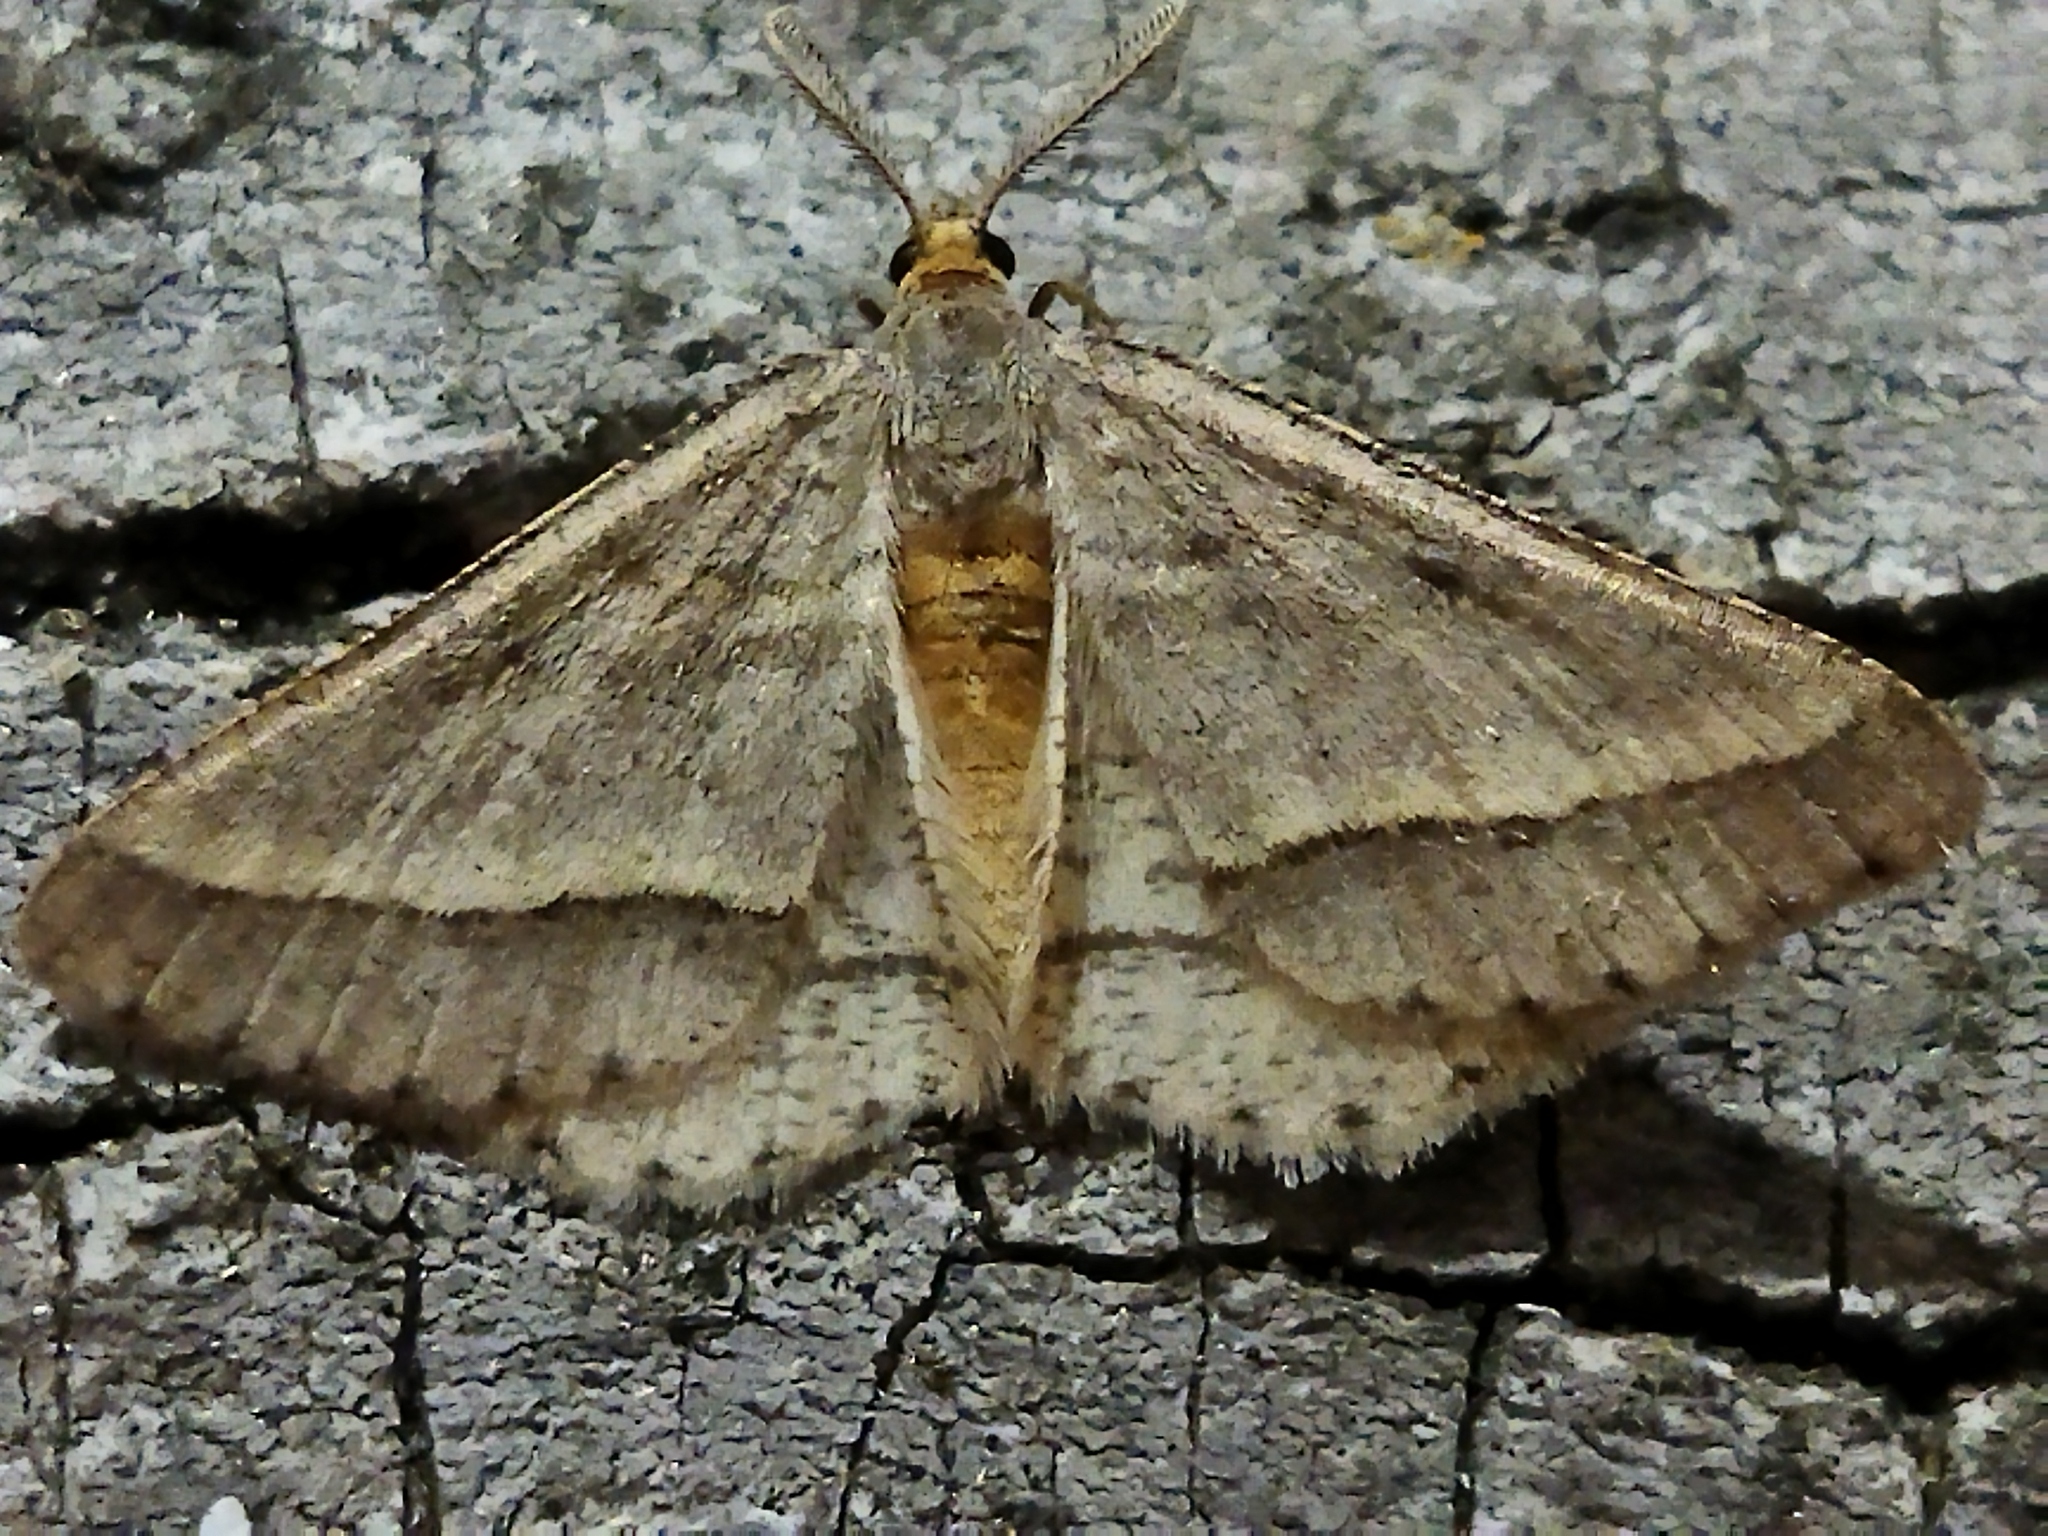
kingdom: Animalia
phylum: Arthropoda
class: Insecta
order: Lepidoptera
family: Geometridae
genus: Tephrina
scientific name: Tephrina arenacearia
